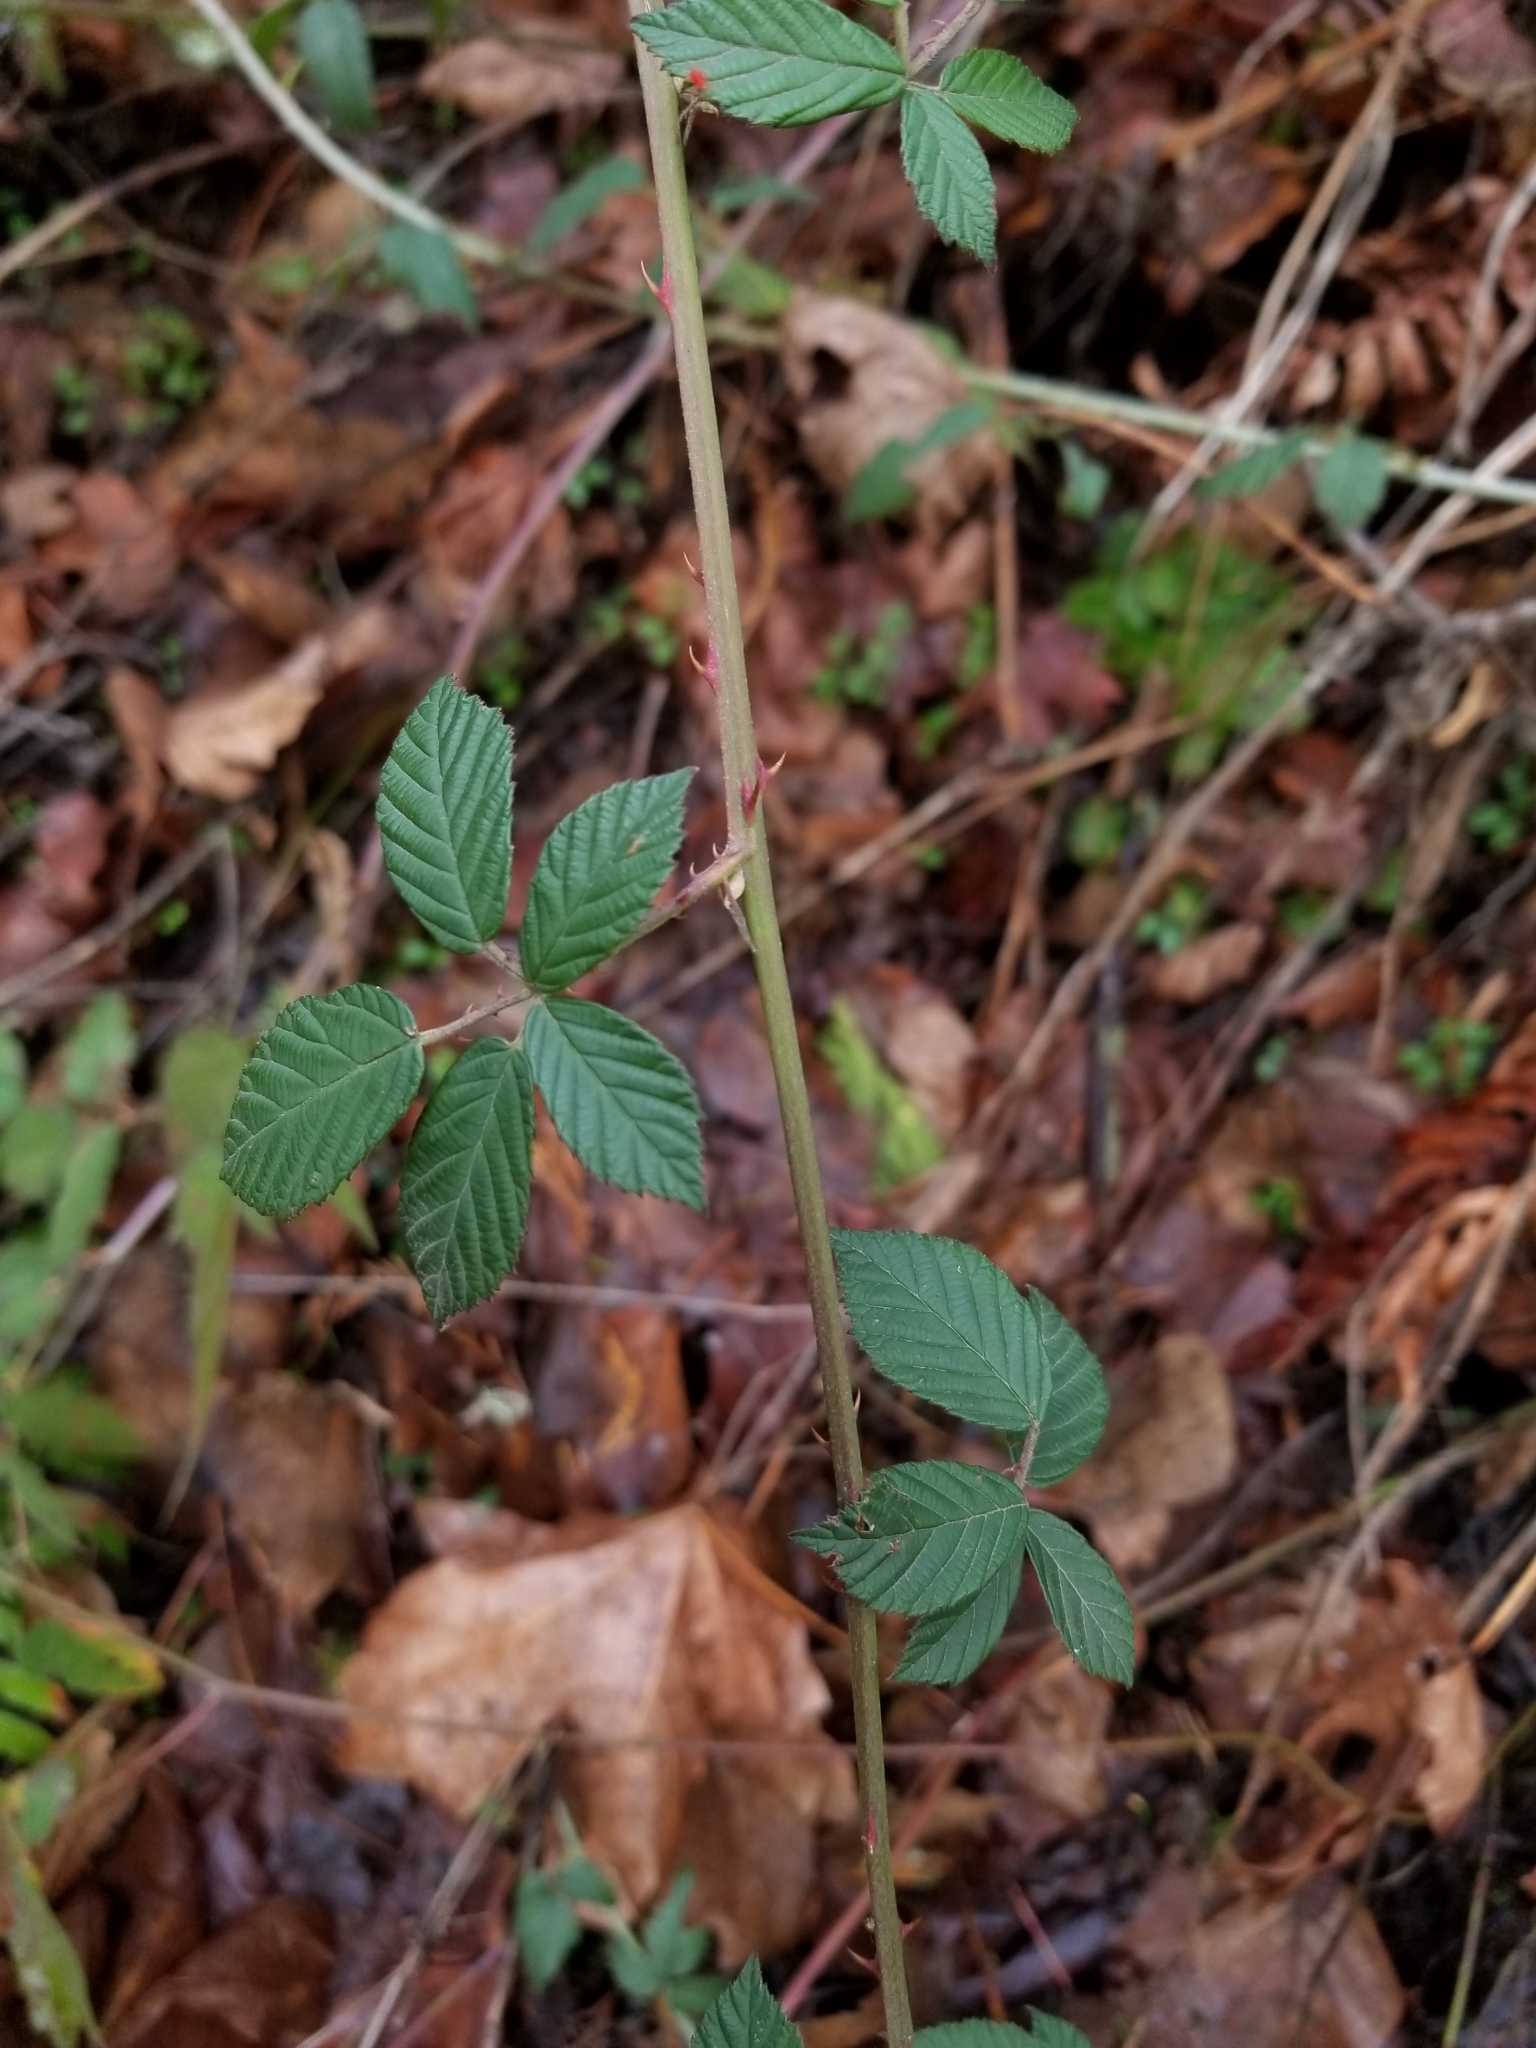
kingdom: Plantae
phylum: Tracheophyta
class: Magnoliopsida
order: Rosales
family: Rosaceae
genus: Rubus
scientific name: Rubus armeniacus
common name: Himalayan blackberry
